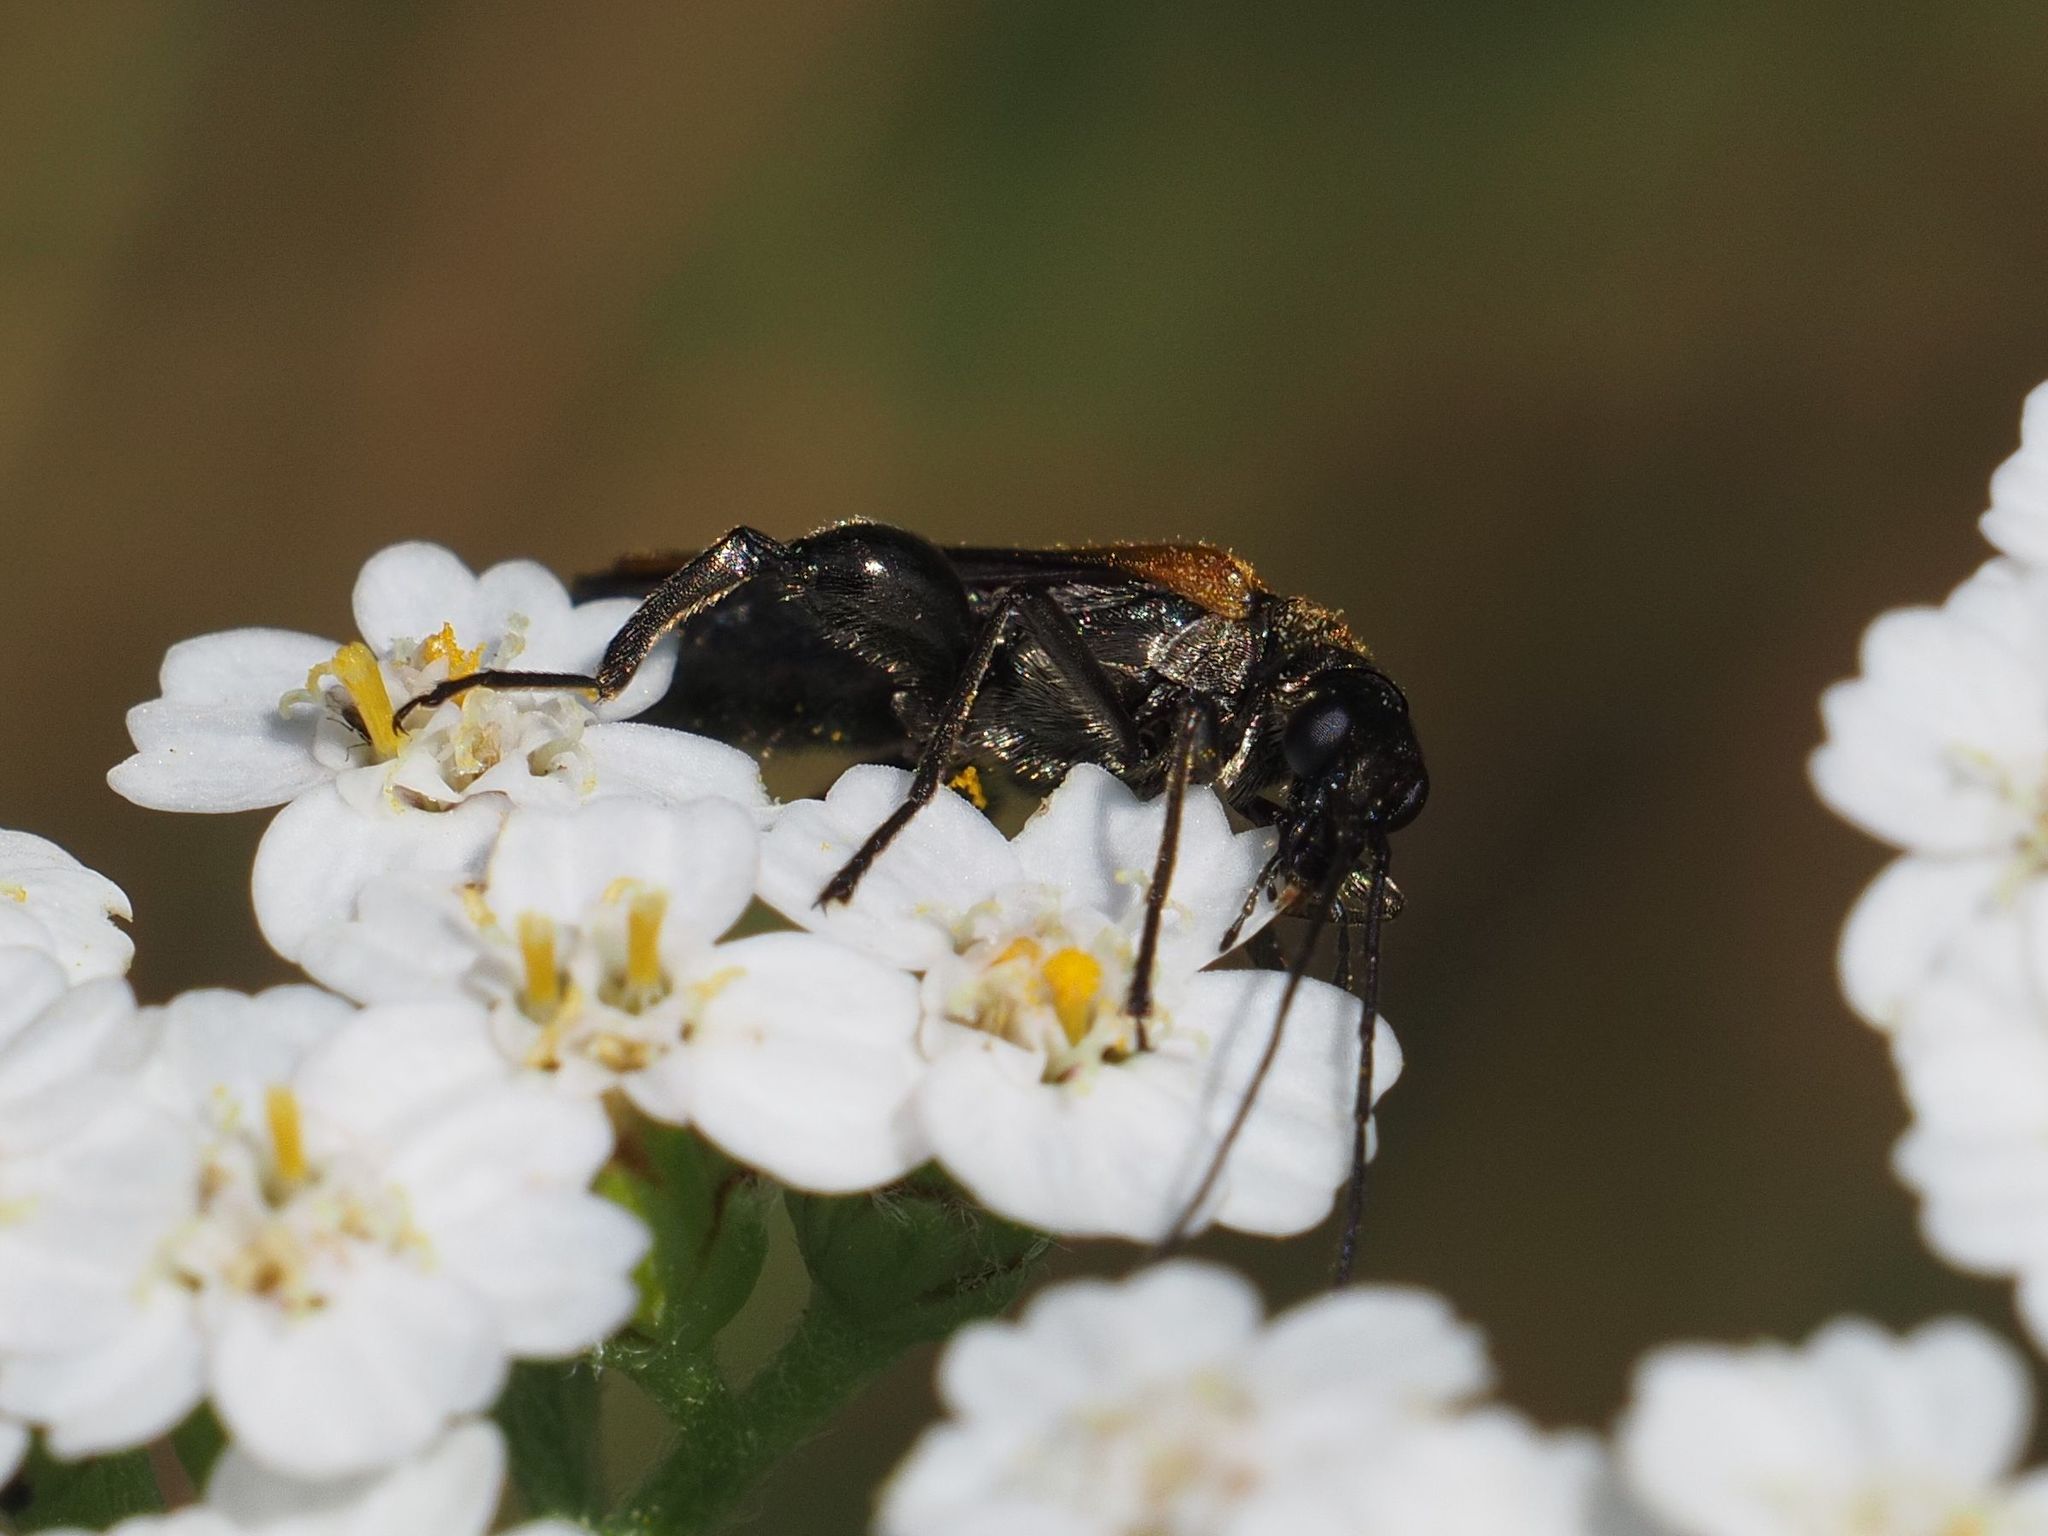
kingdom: Animalia
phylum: Arthropoda
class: Insecta
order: Coleoptera
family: Oedemeridae
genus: Oedemera
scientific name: Oedemera femorata
